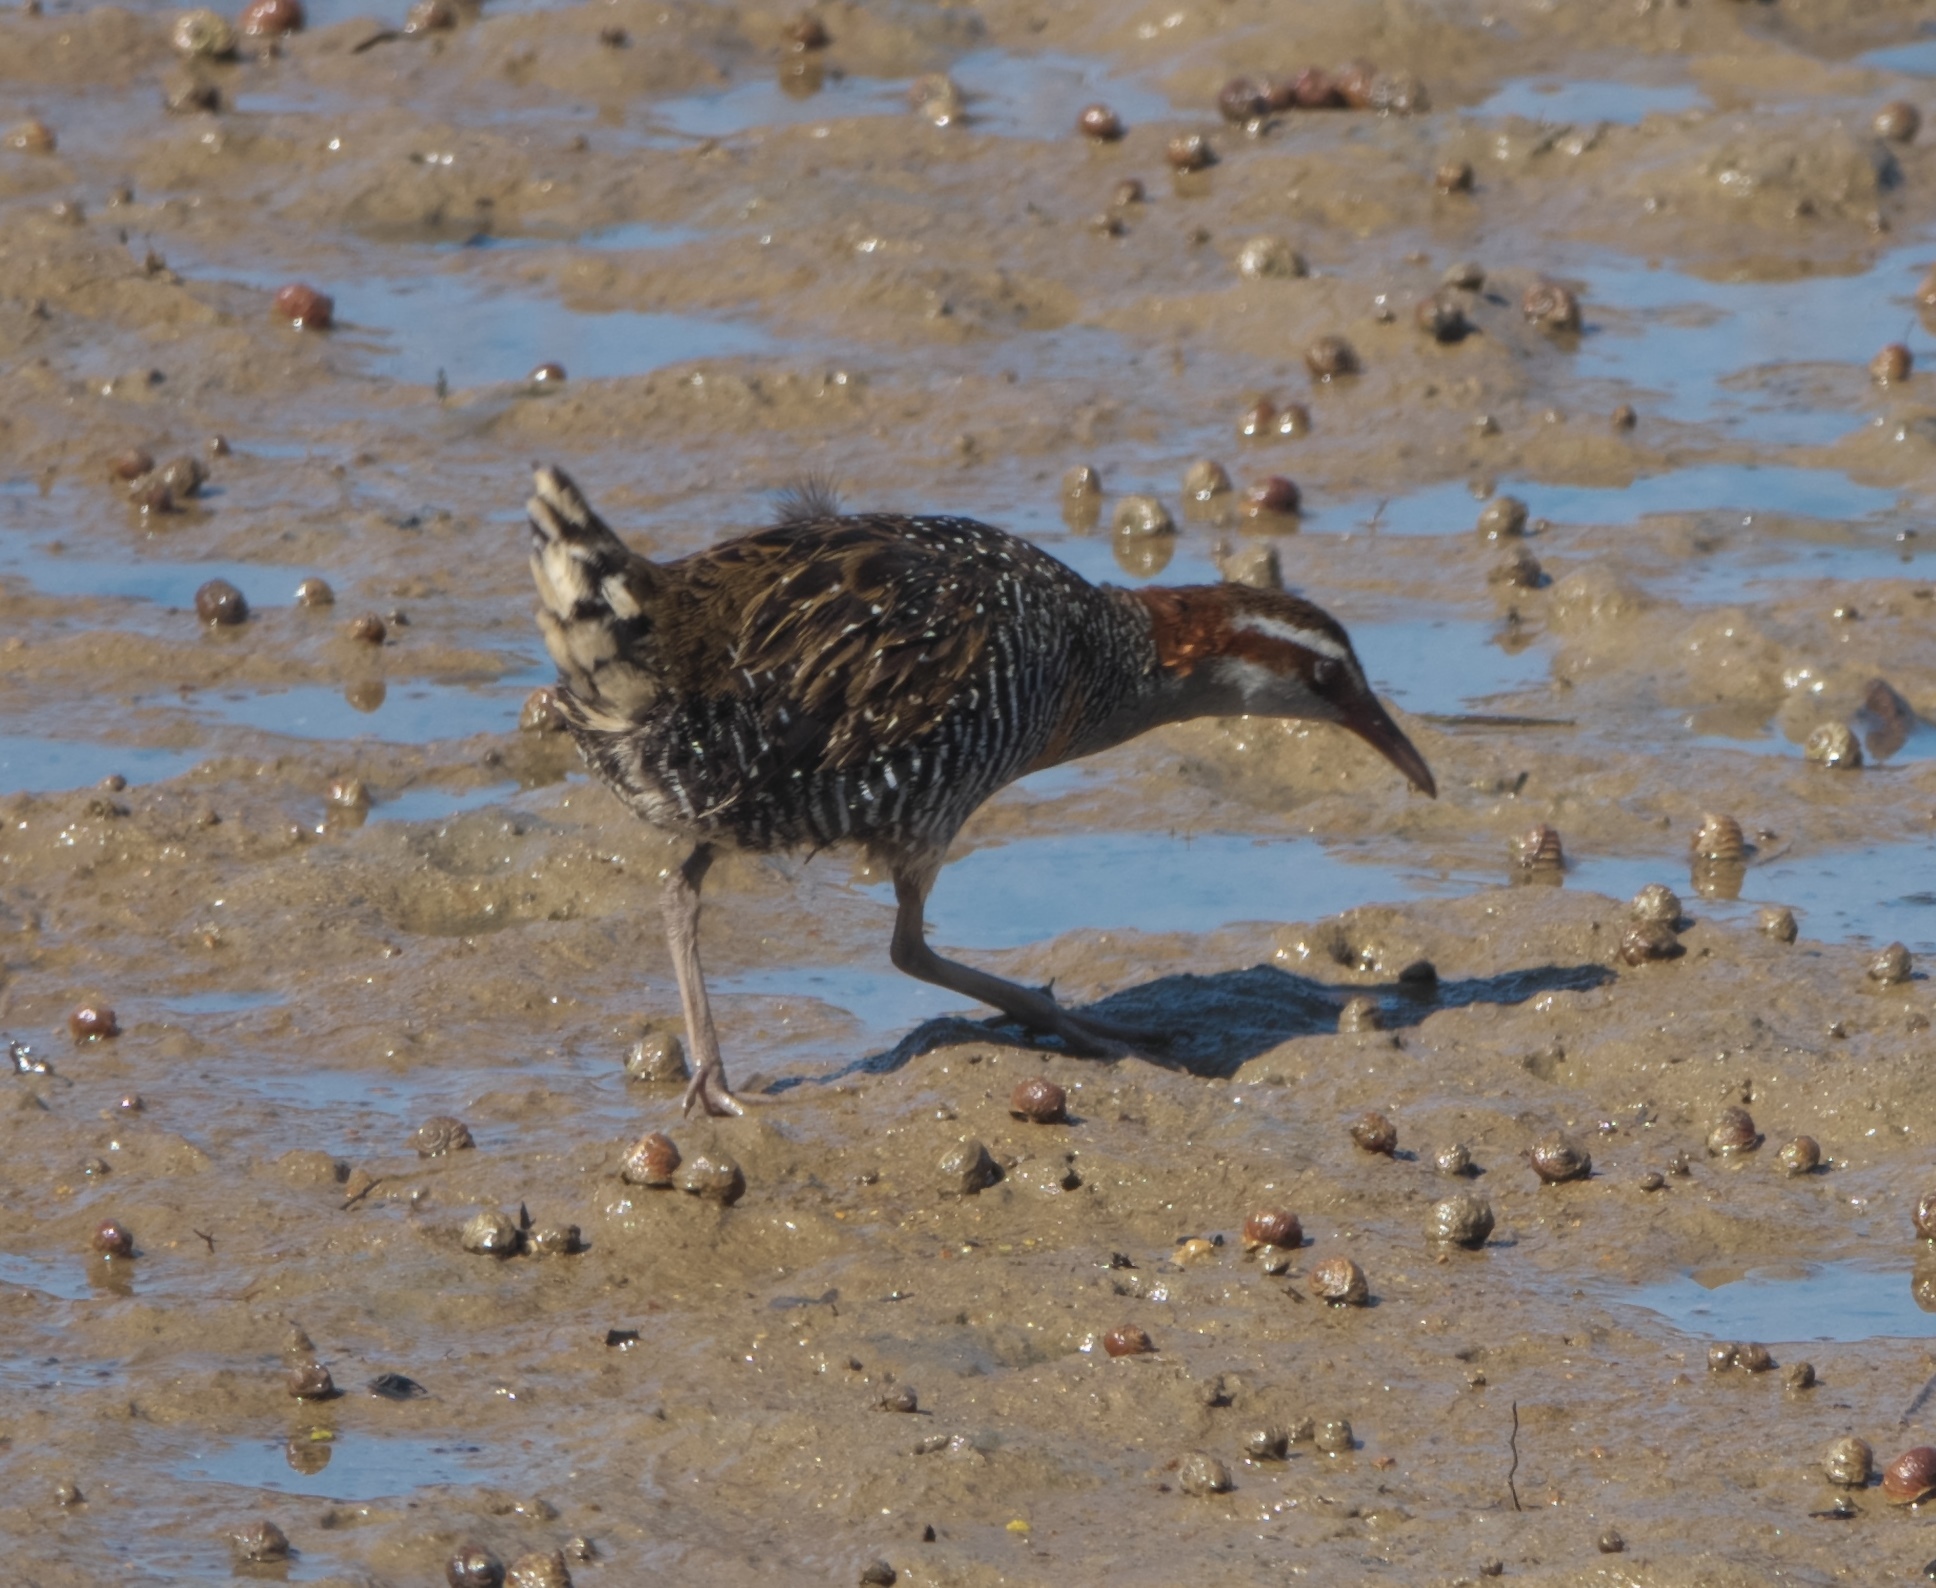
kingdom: Animalia
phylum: Chordata
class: Aves
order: Gruiformes
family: Rallidae
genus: Gallirallus
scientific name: Gallirallus philippensis
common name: Buff-banded rail
